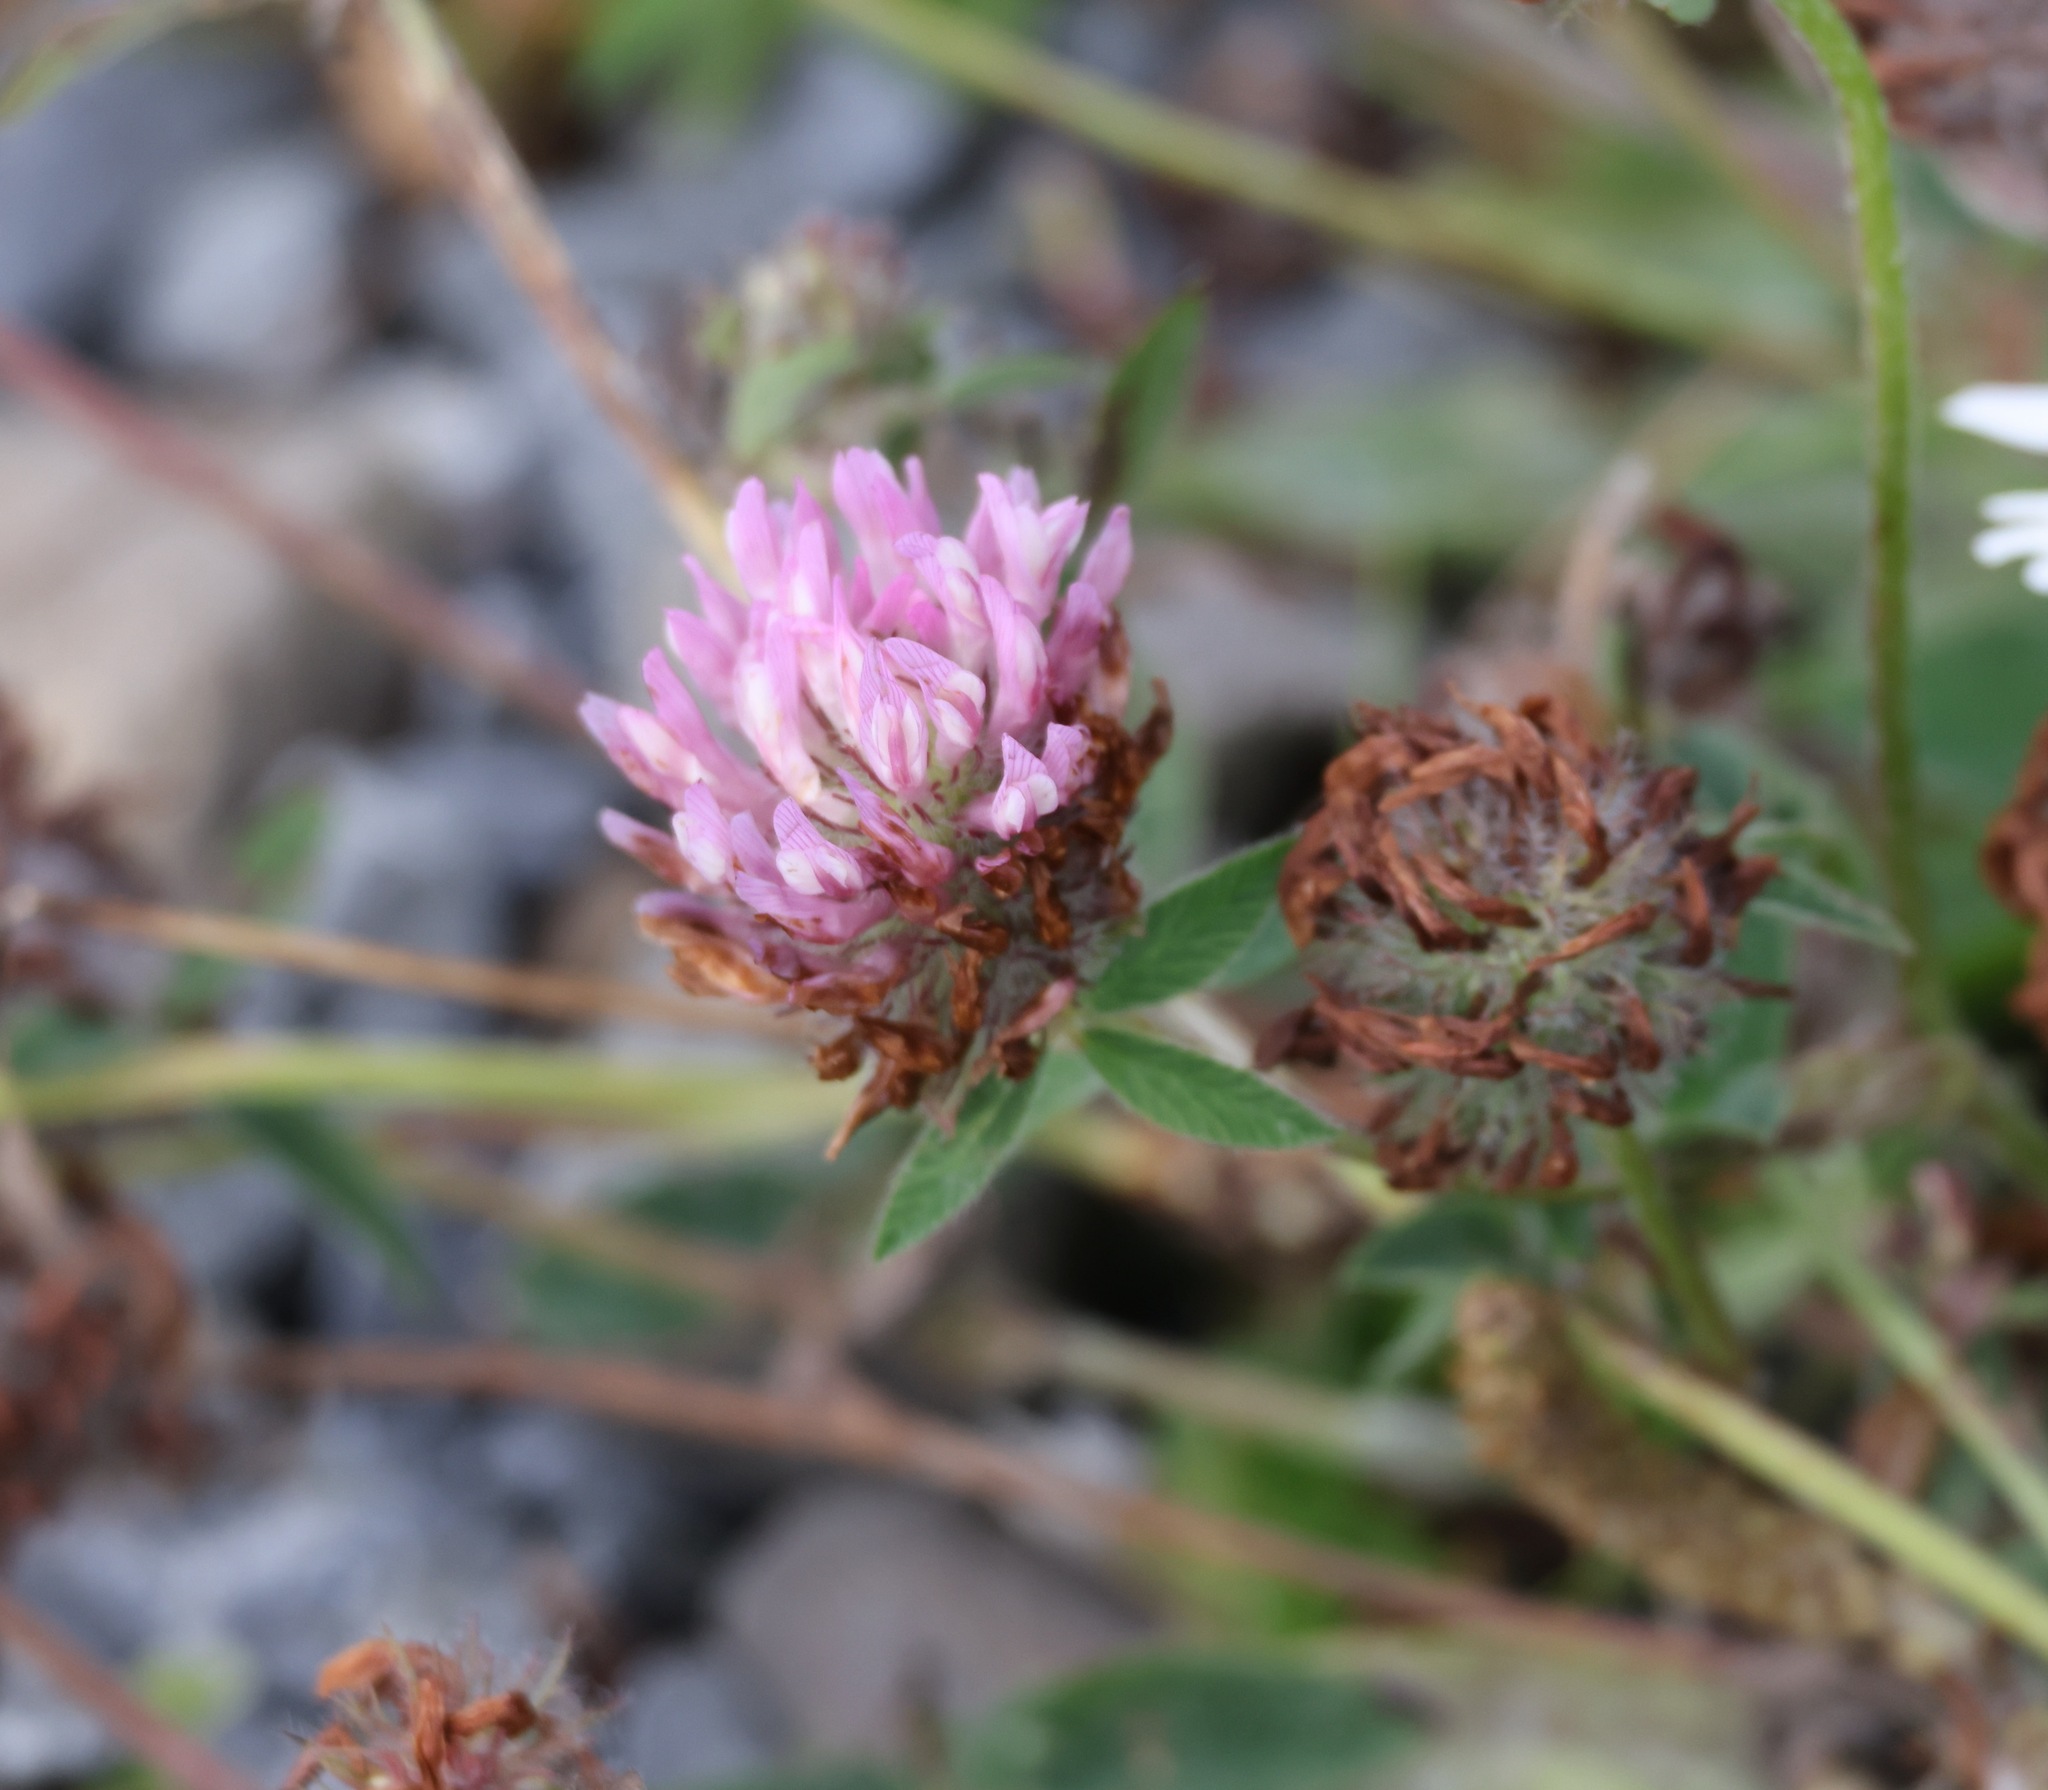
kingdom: Plantae
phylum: Tracheophyta
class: Magnoliopsida
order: Fabales
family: Fabaceae
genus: Trifolium
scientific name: Trifolium pratense
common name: Red clover
